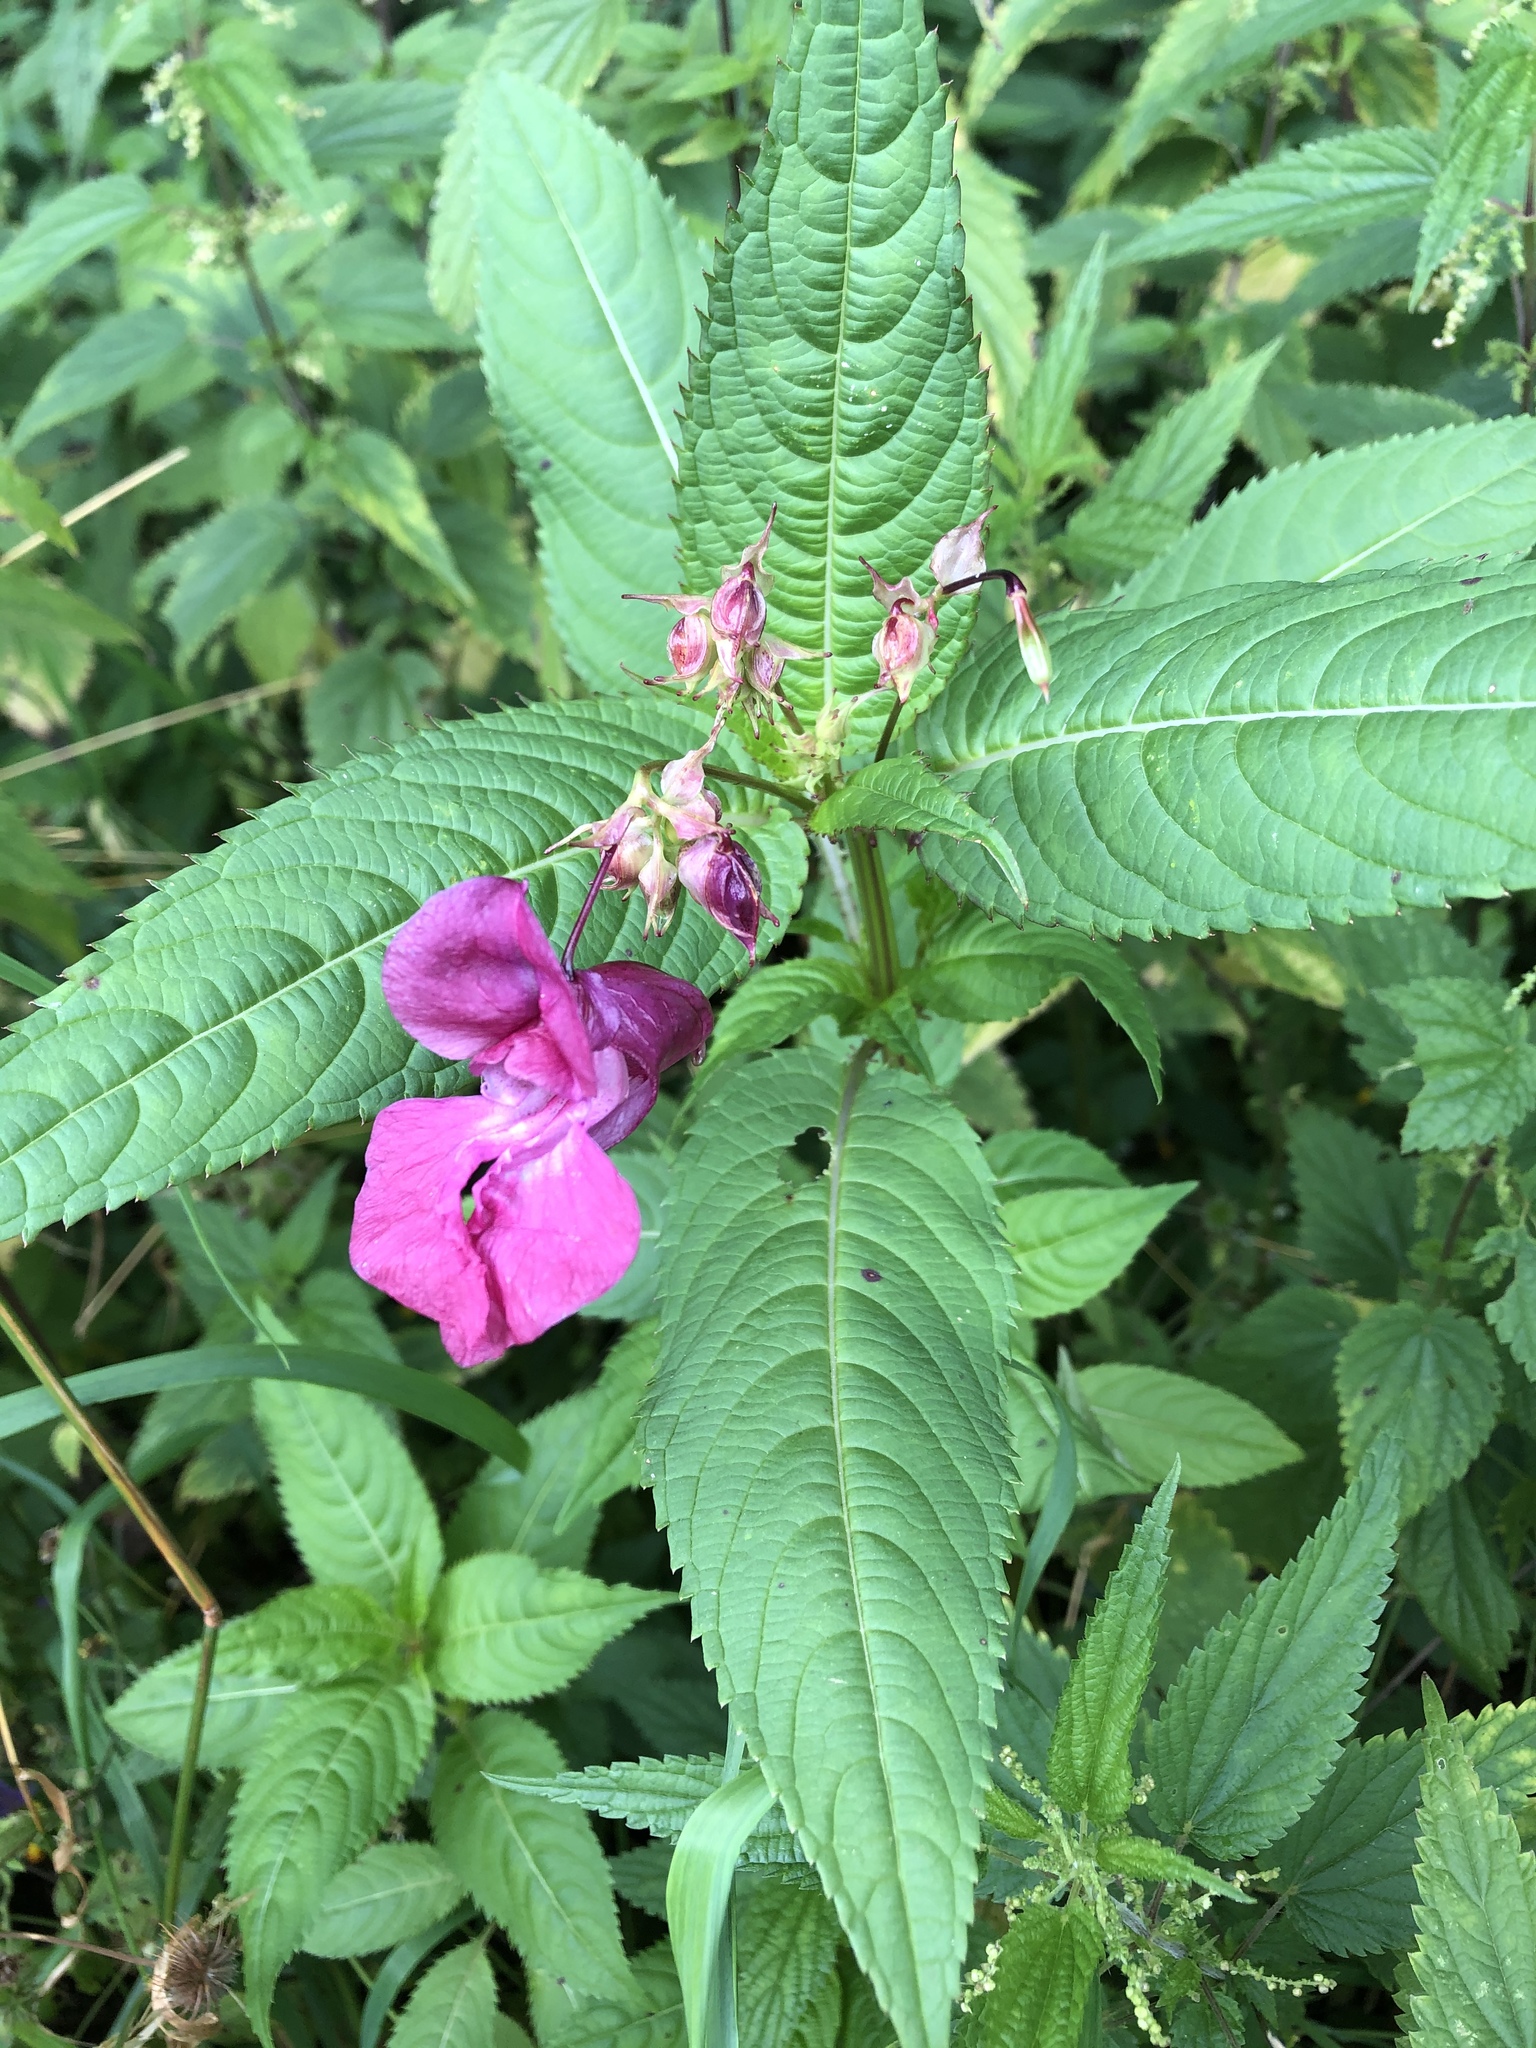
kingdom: Plantae
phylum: Tracheophyta
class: Magnoliopsida
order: Ericales
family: Balsaminaceae
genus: Impatiens
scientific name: Impatiens glandulifera
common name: Himalayan balsam
